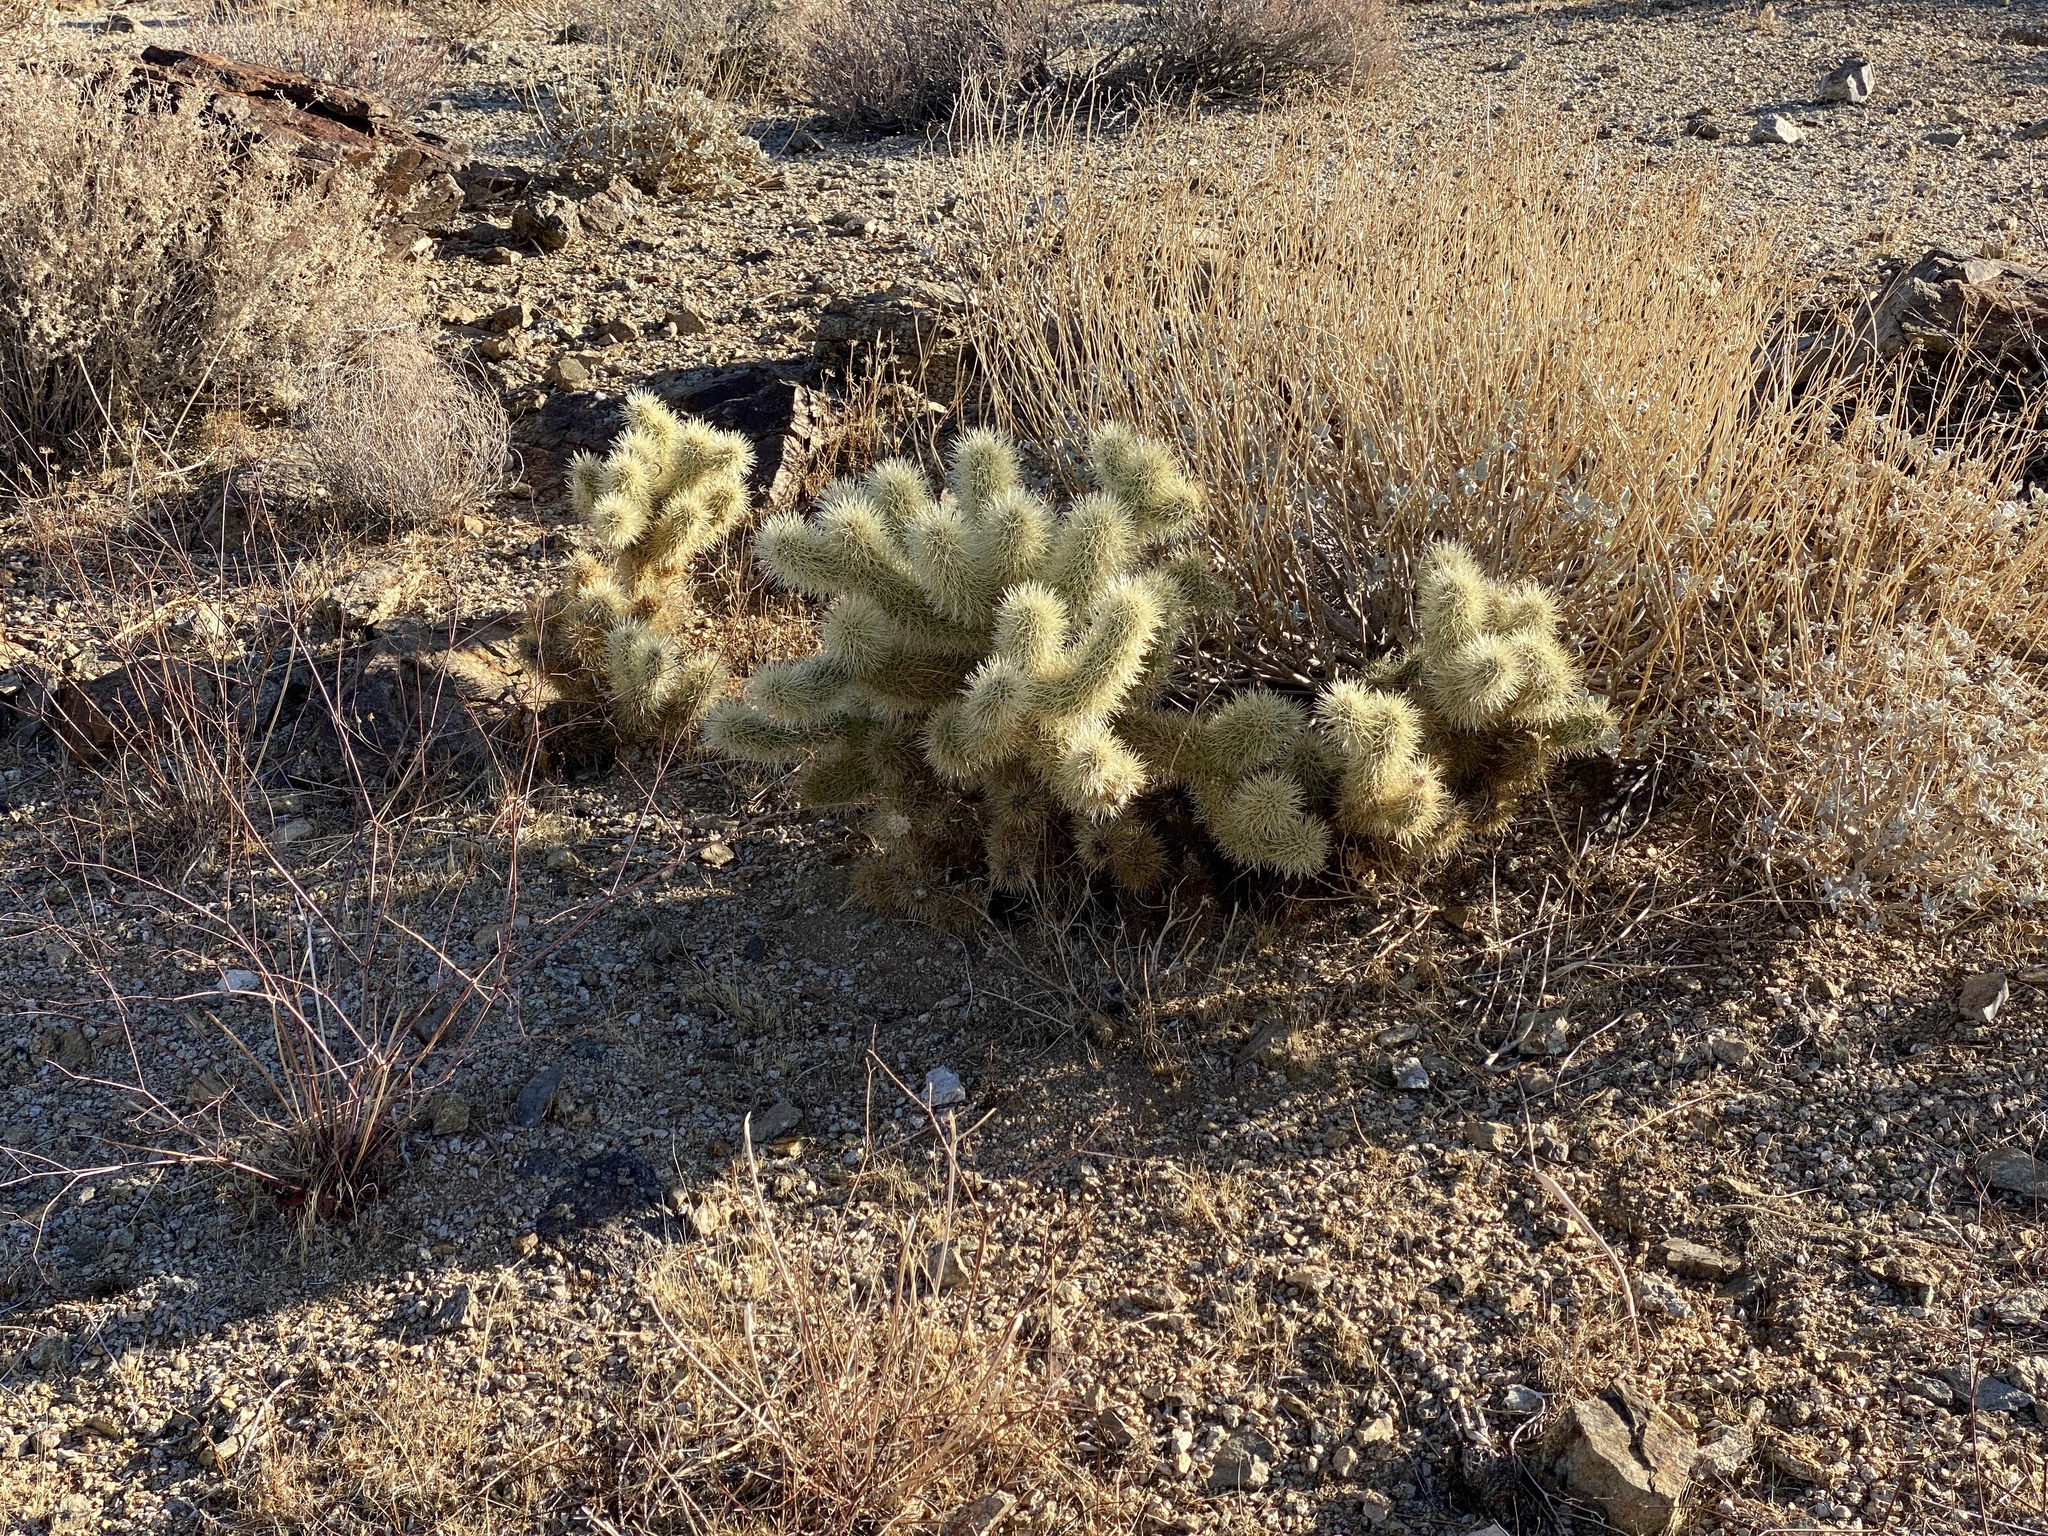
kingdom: Plantae
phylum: Tracheophyta
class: Magnoliopsida
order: Caryophyllales
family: Cactaceae
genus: Cylindropuntia
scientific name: Cylindropuntia fosbergii
